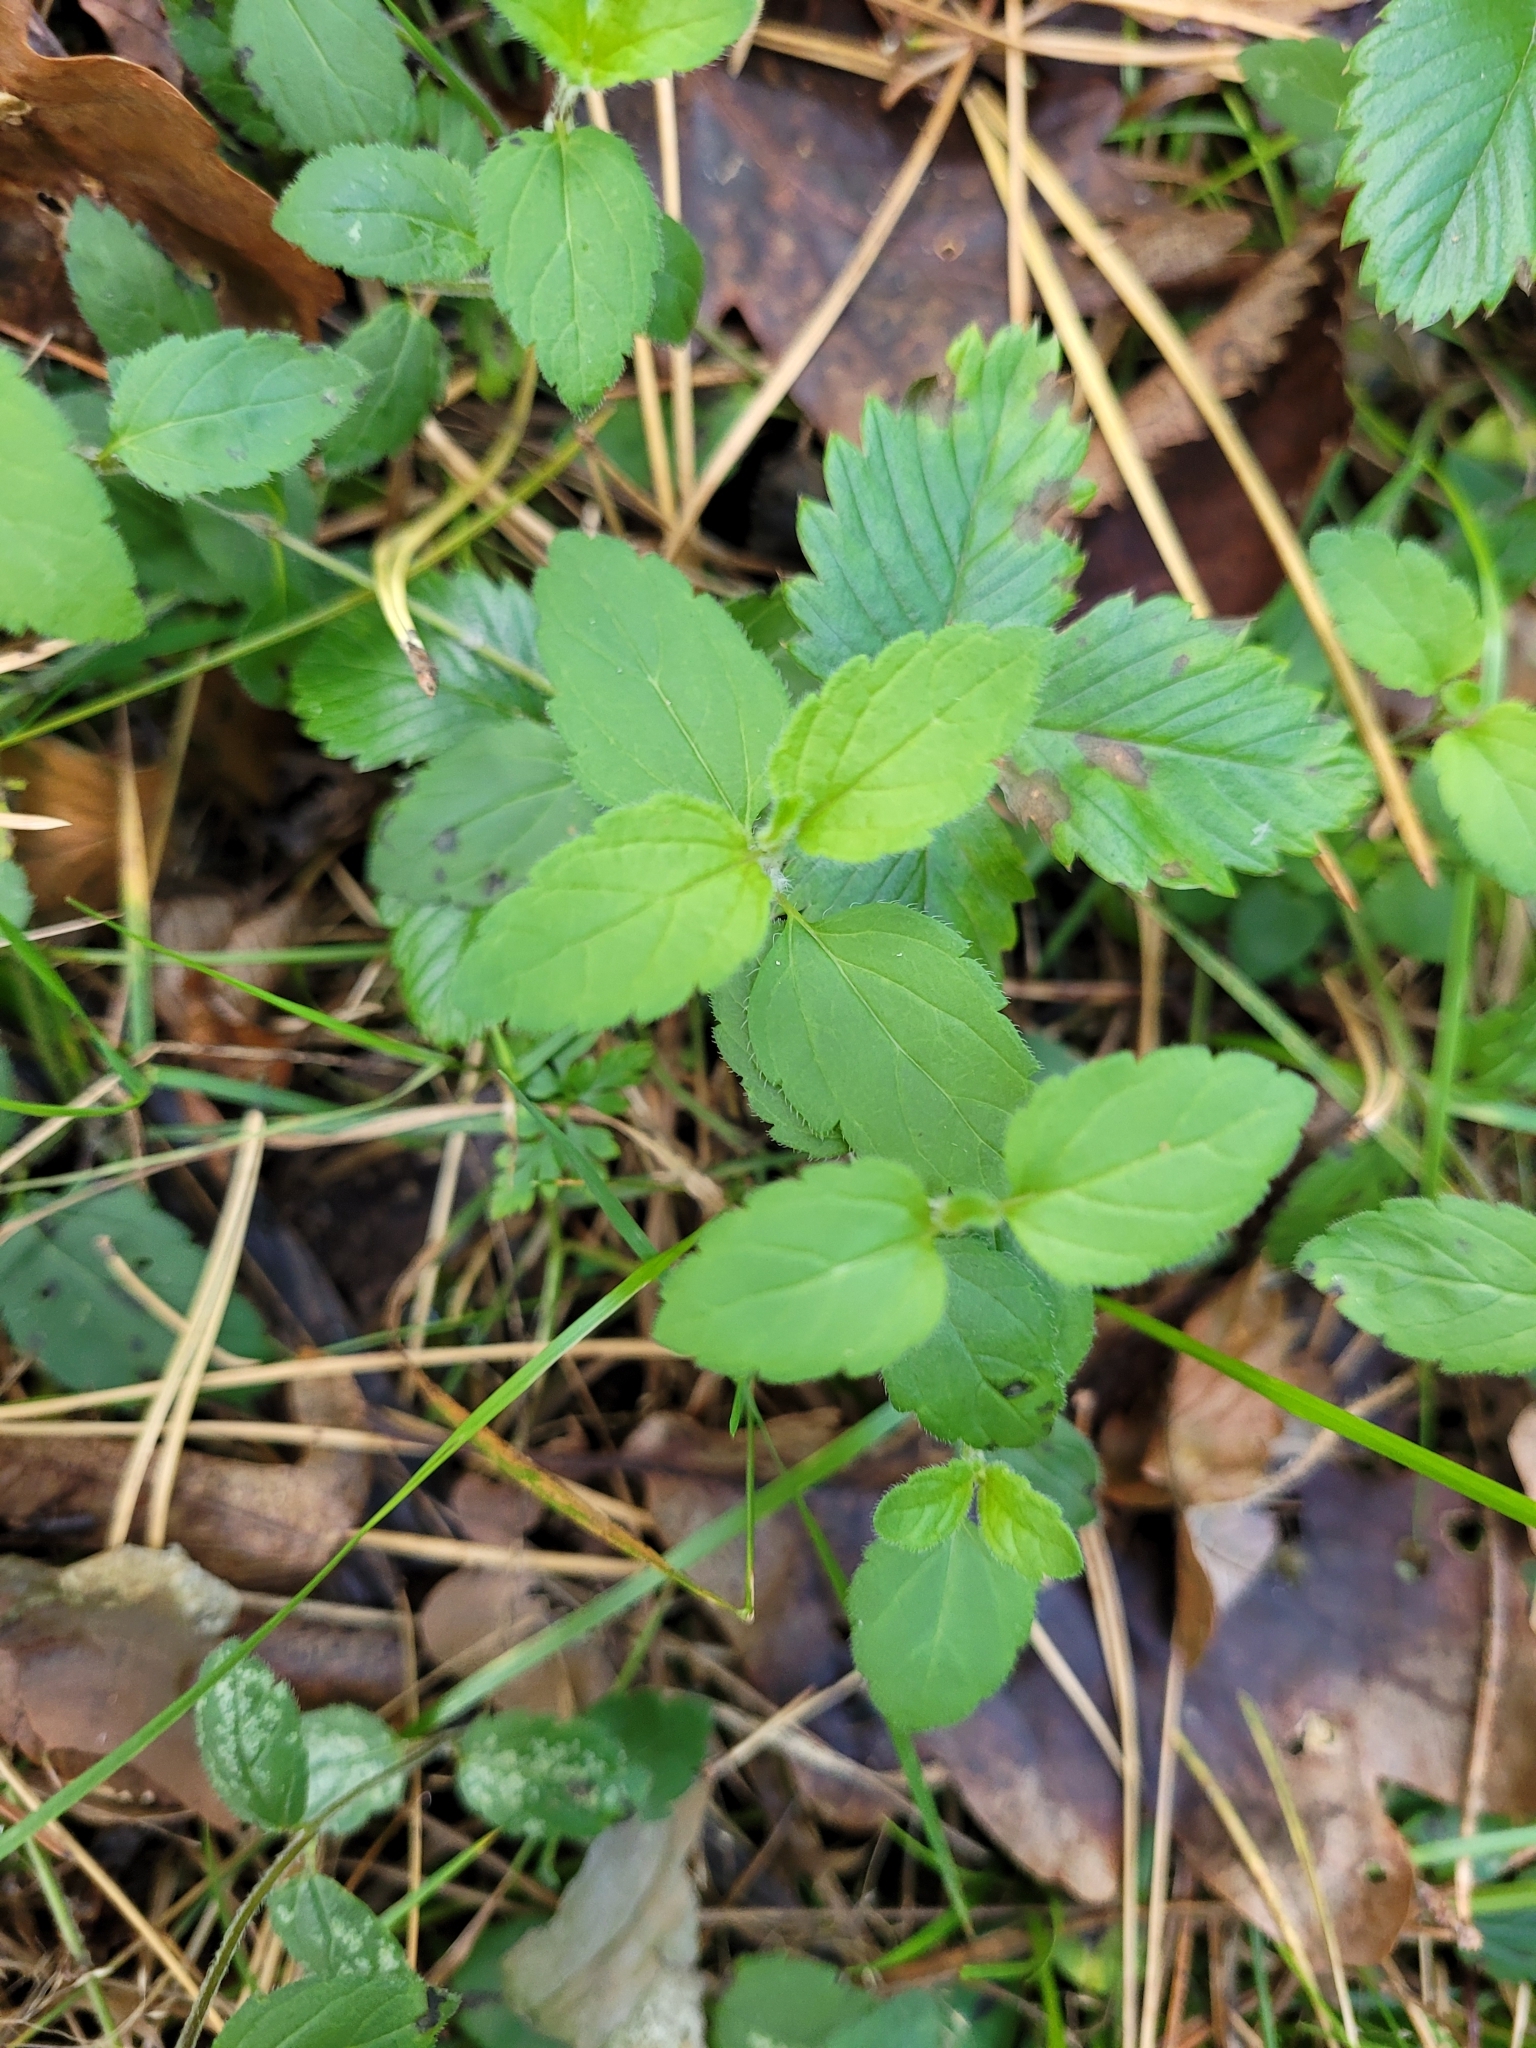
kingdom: Plantae
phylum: Tracheophyta
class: Magnoliopsida
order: Lamiales
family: Plantaginaceae
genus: Veronica
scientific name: Veronica chamaedrys
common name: Germander speedwell
